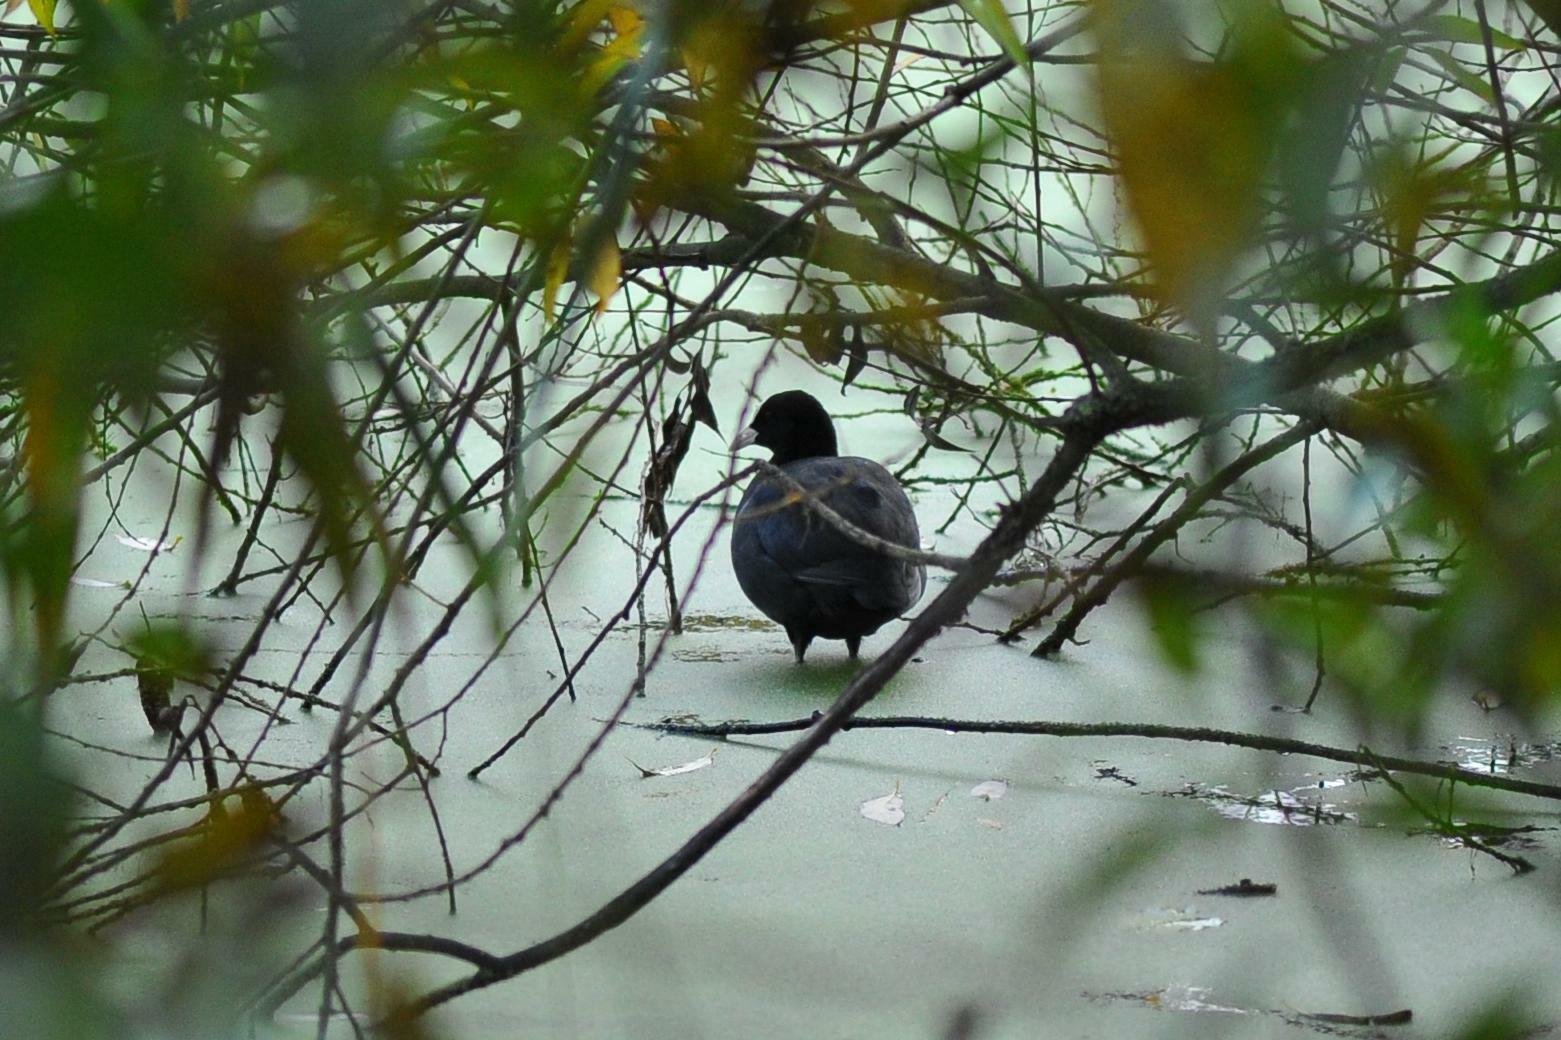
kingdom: Animalia
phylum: Chordata
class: Aves
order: Gruiformes
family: Rallidae
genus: Fulica
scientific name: Fulica atra
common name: Eurasian coot
